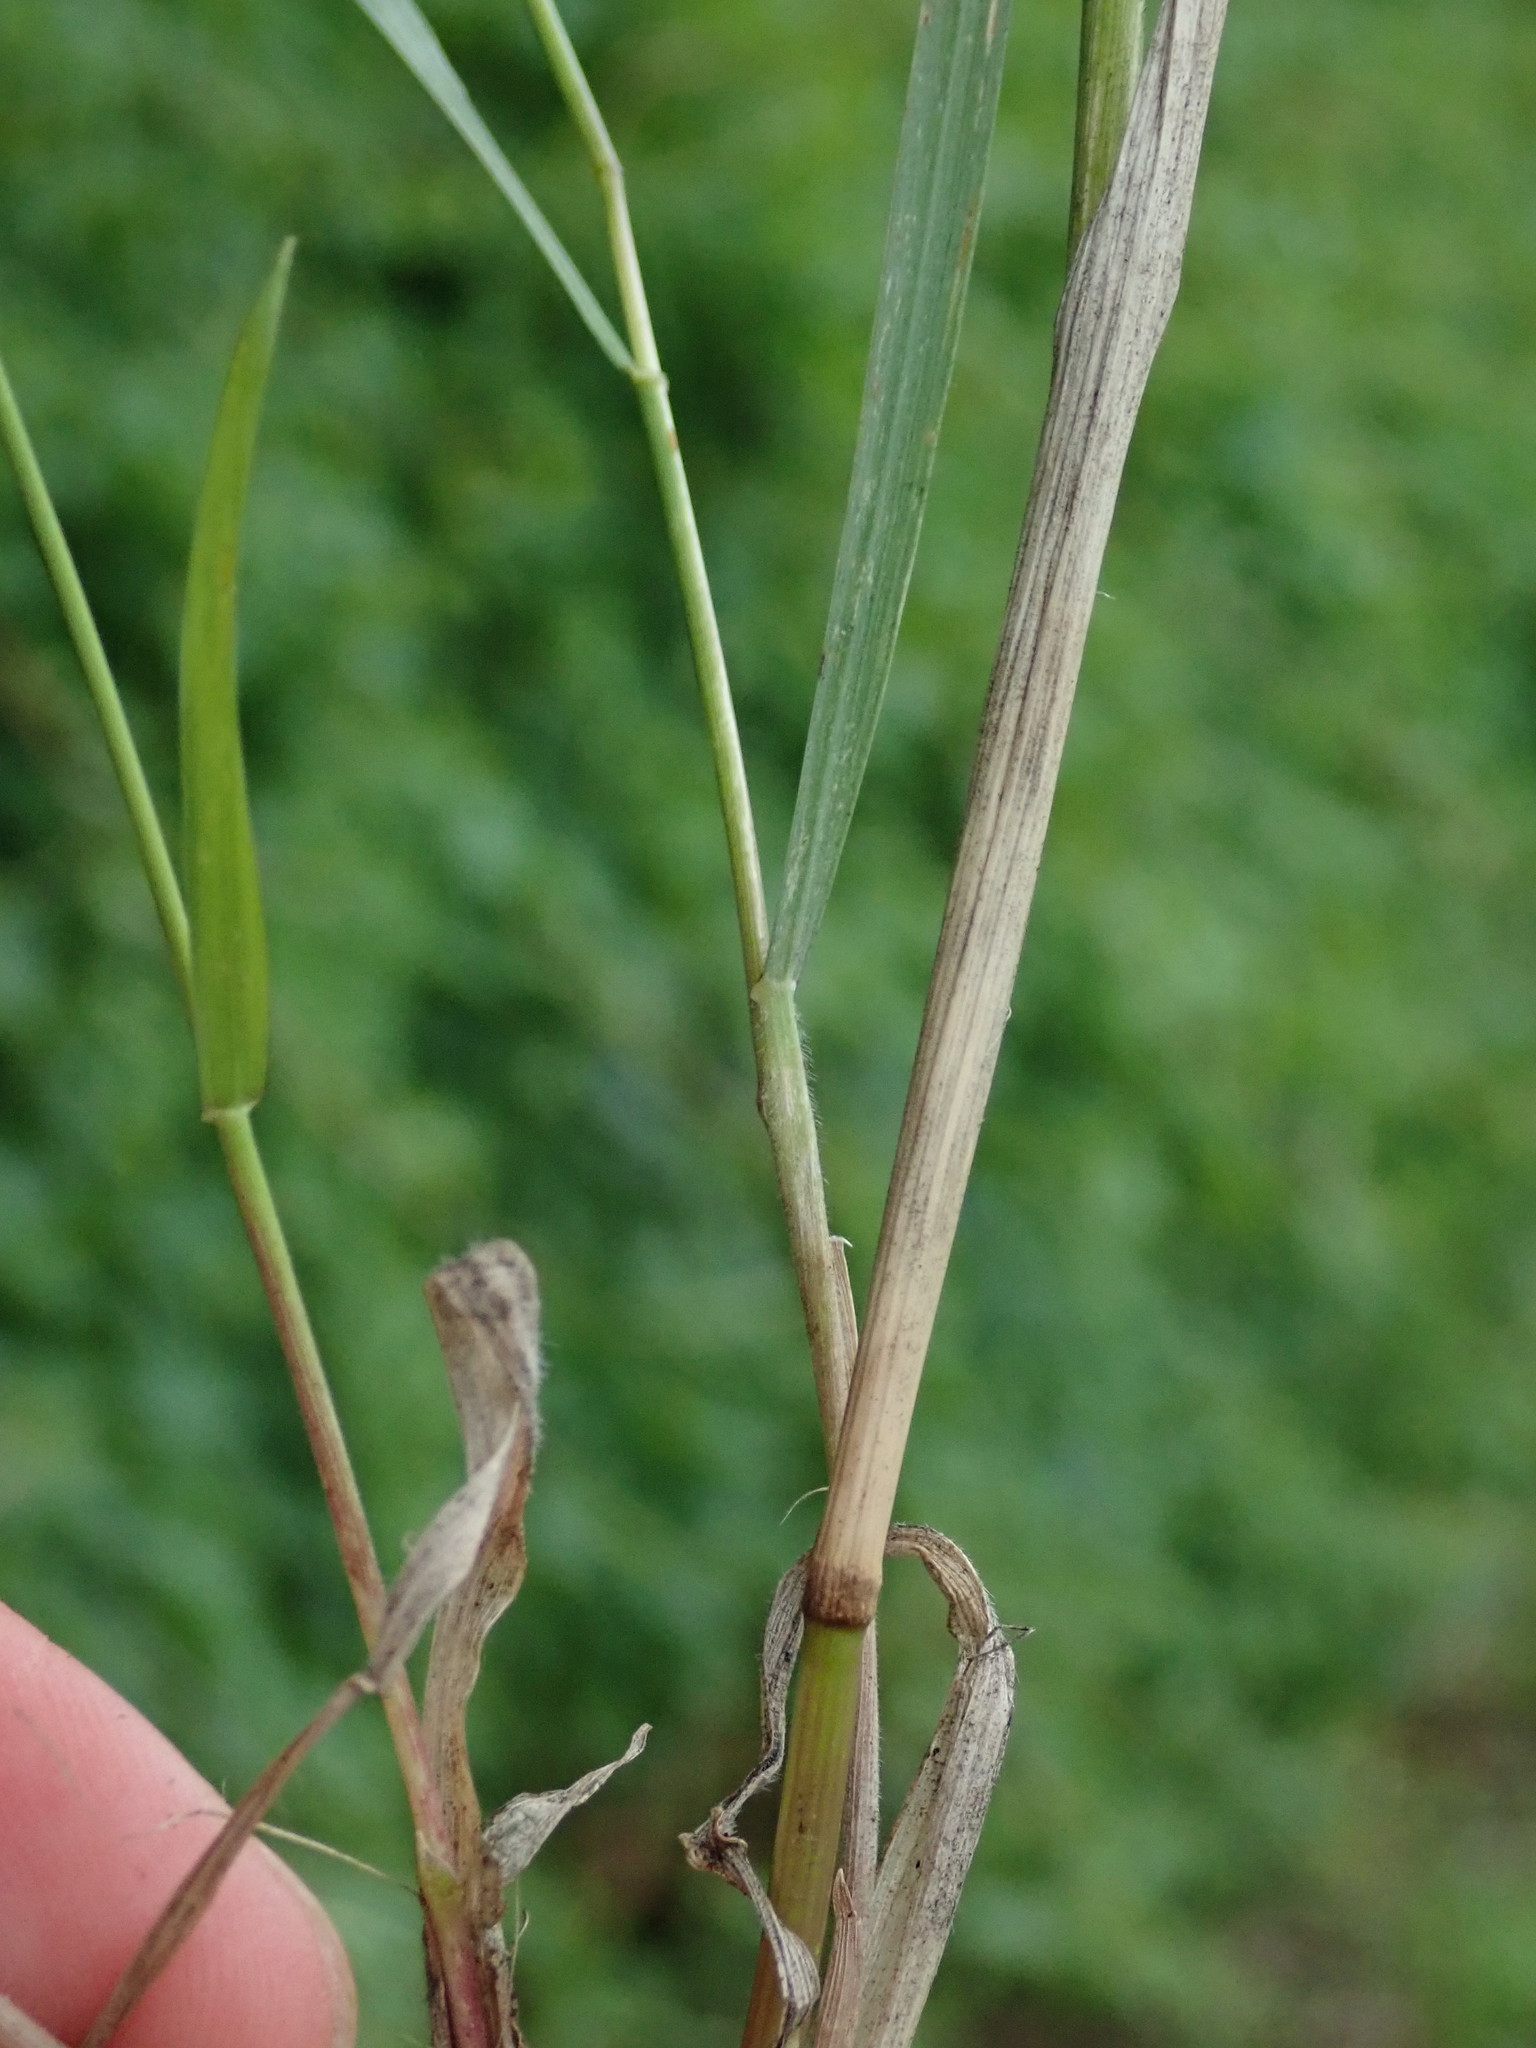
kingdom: Plantae
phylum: Tracheophyta
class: Liliopsida
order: Poales
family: Poaceae
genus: Elymus
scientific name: Elymus repens
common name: Quackgrass
